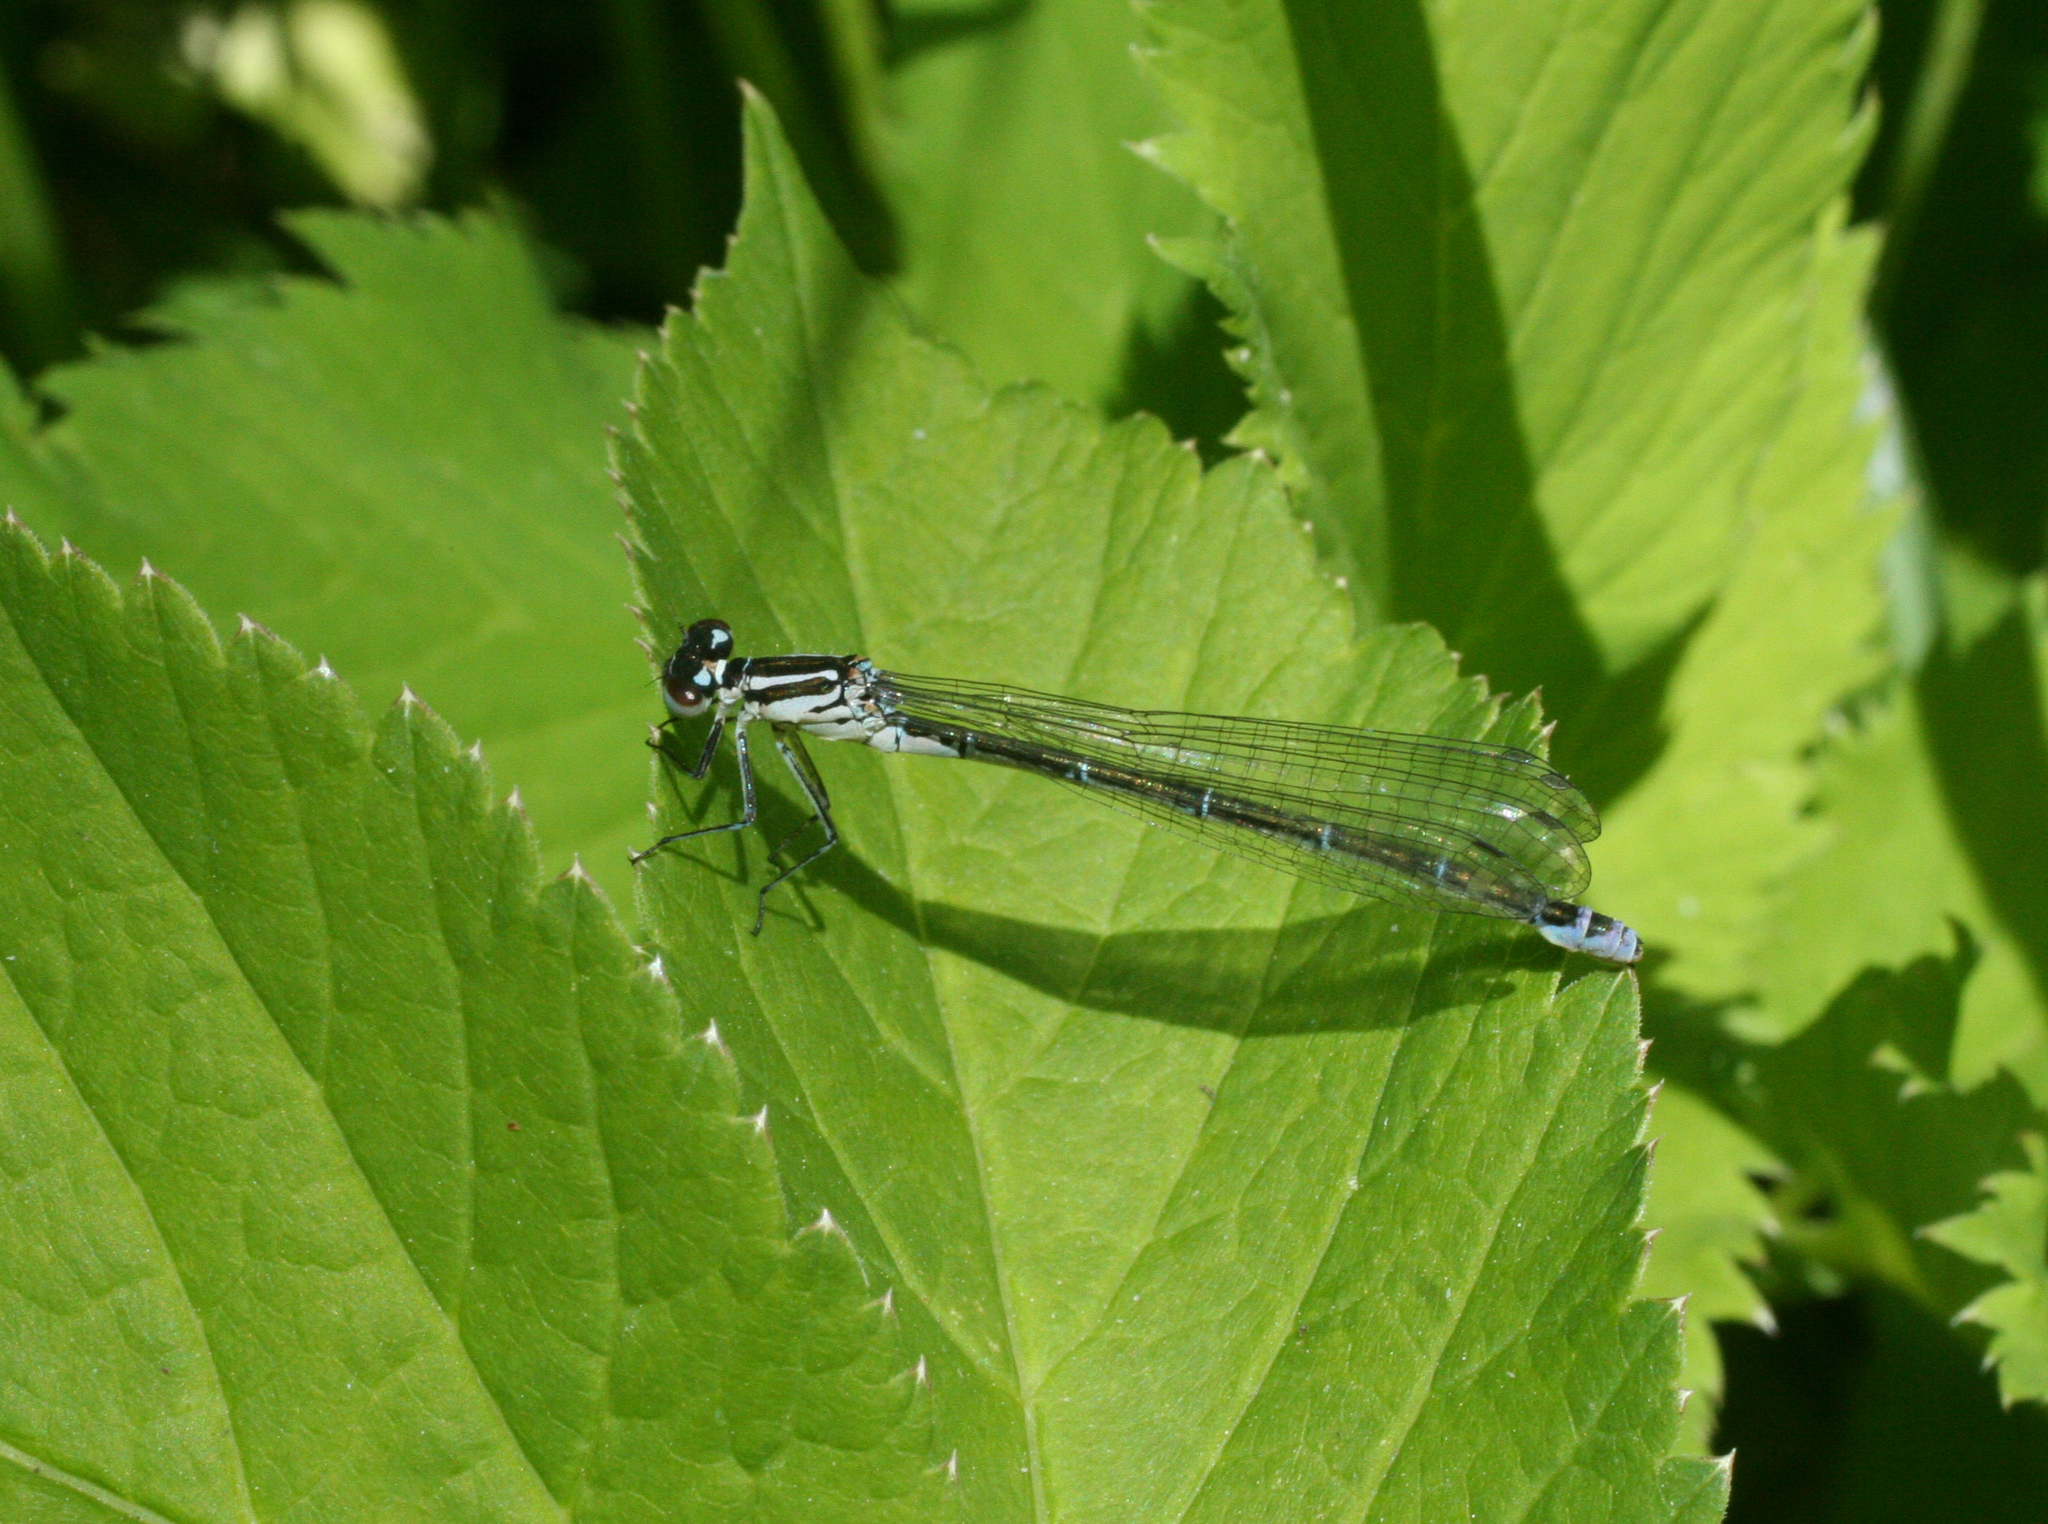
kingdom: Animalia
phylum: Arthropoda
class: Insecta
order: Odonata
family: Coenagrionidae
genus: Coenagrion
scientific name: Coenagrion puella
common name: Azure damselfly
